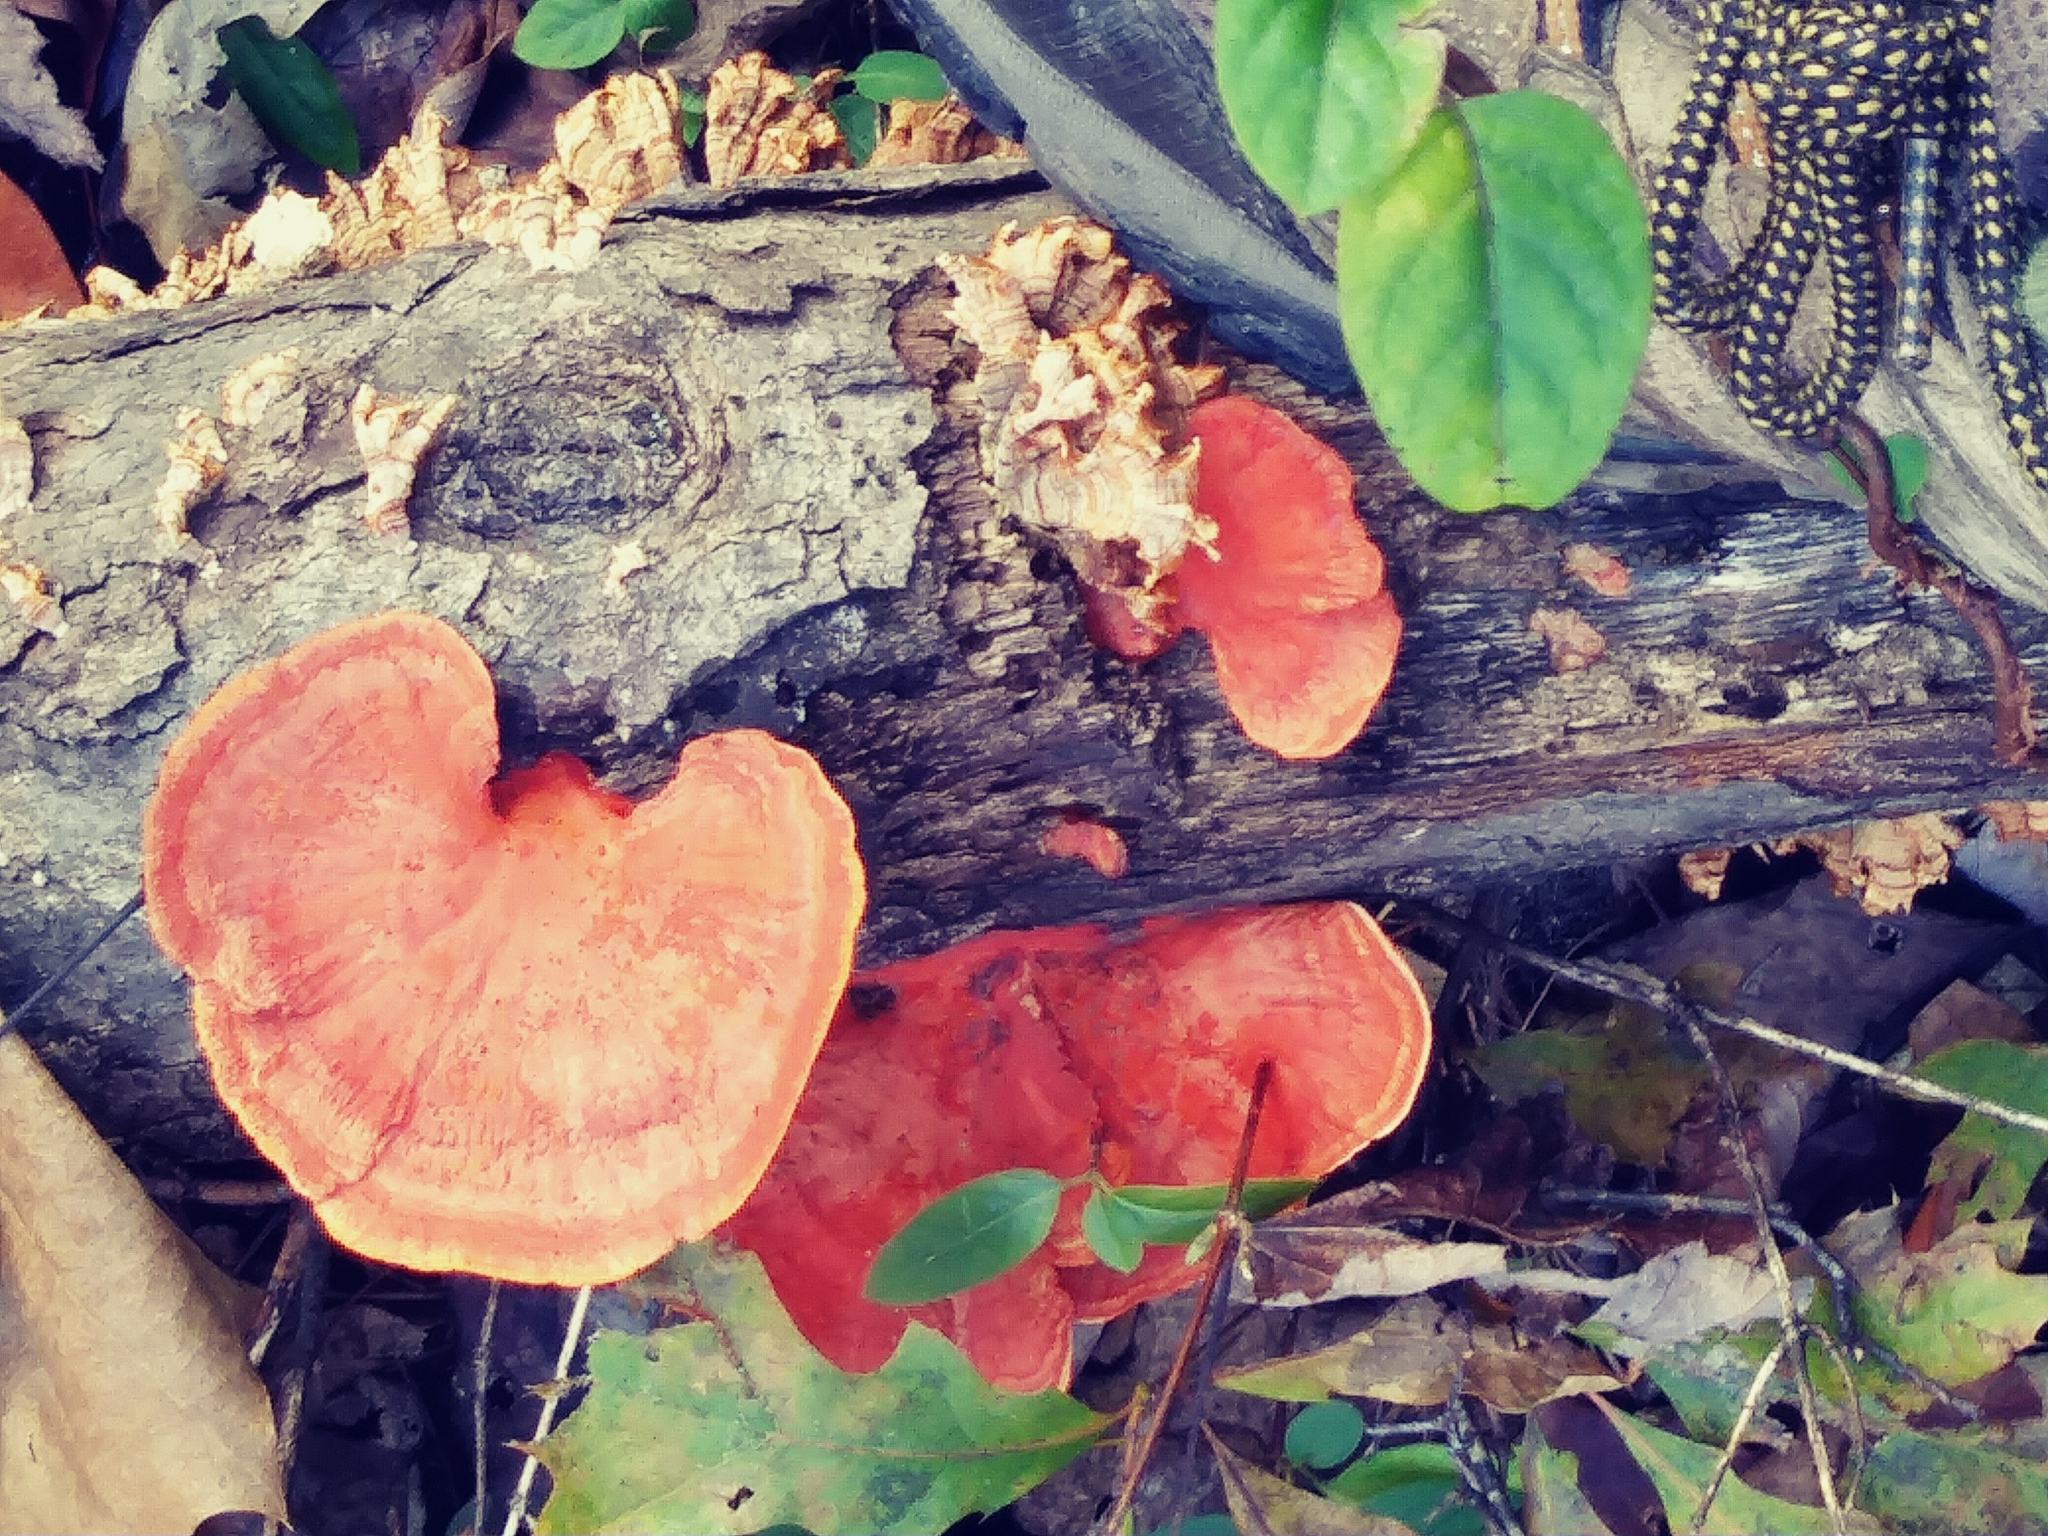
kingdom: Fungi
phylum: Basidiomycota
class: Agaricomycetes
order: Polyporales
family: Polyporaceae
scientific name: Polyporaceae
